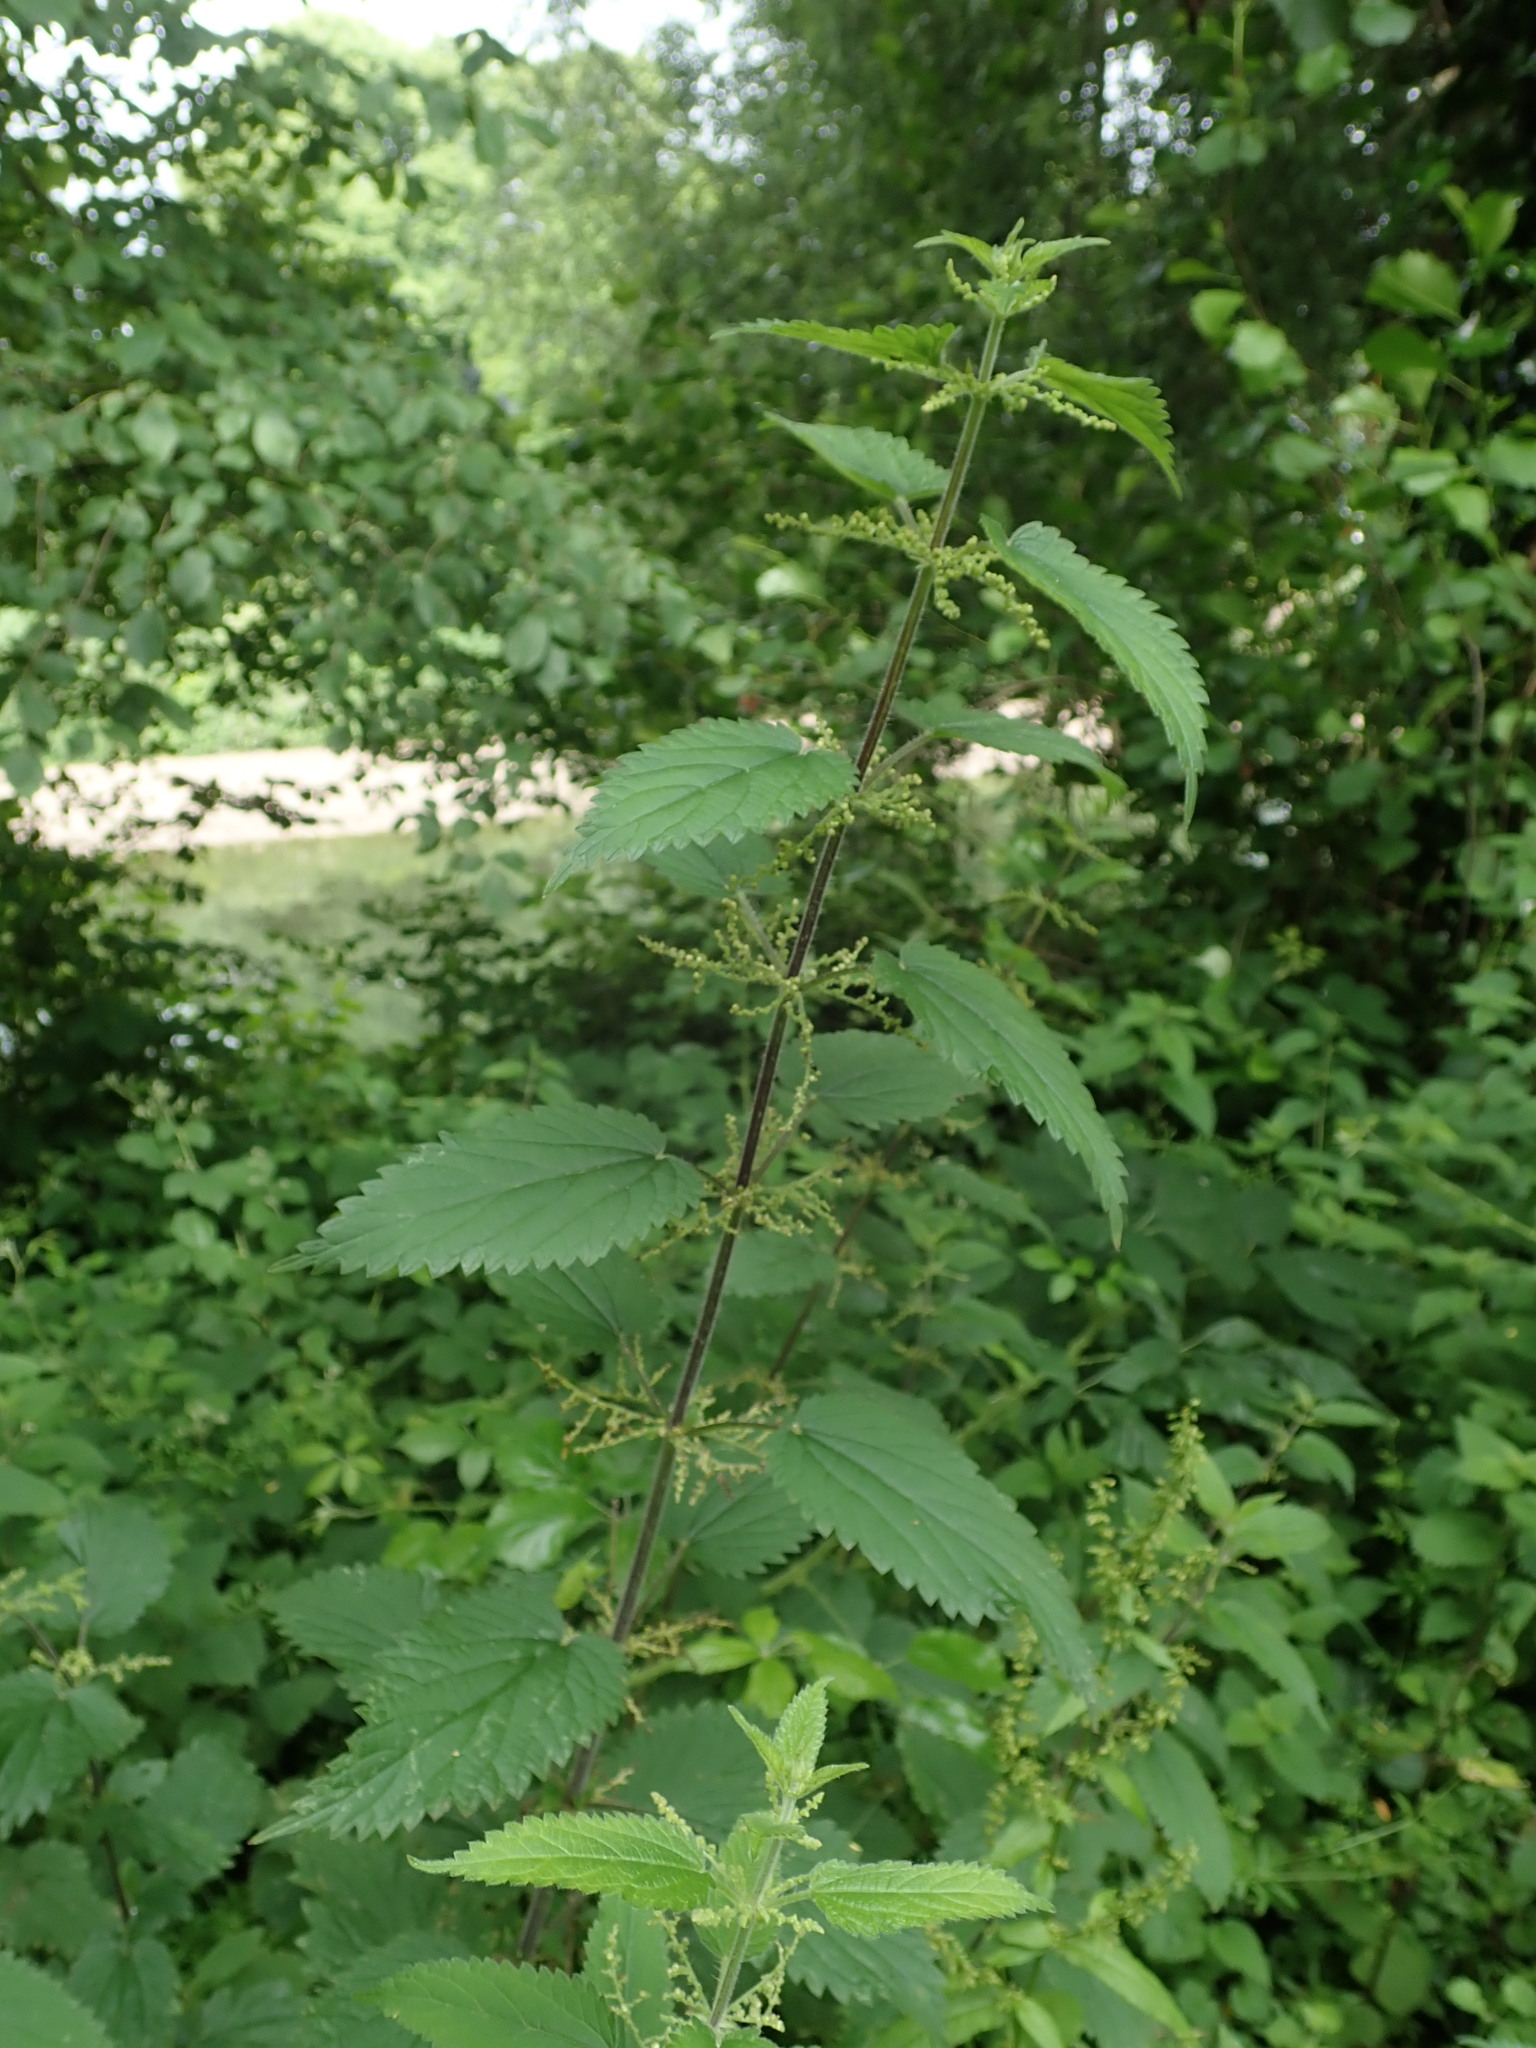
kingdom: Plantae
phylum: Tracheophyta
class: Magnoliopsida
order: Rosales
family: Urticaceae
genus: Urtica
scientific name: Urtica dioica
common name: Common nettle
